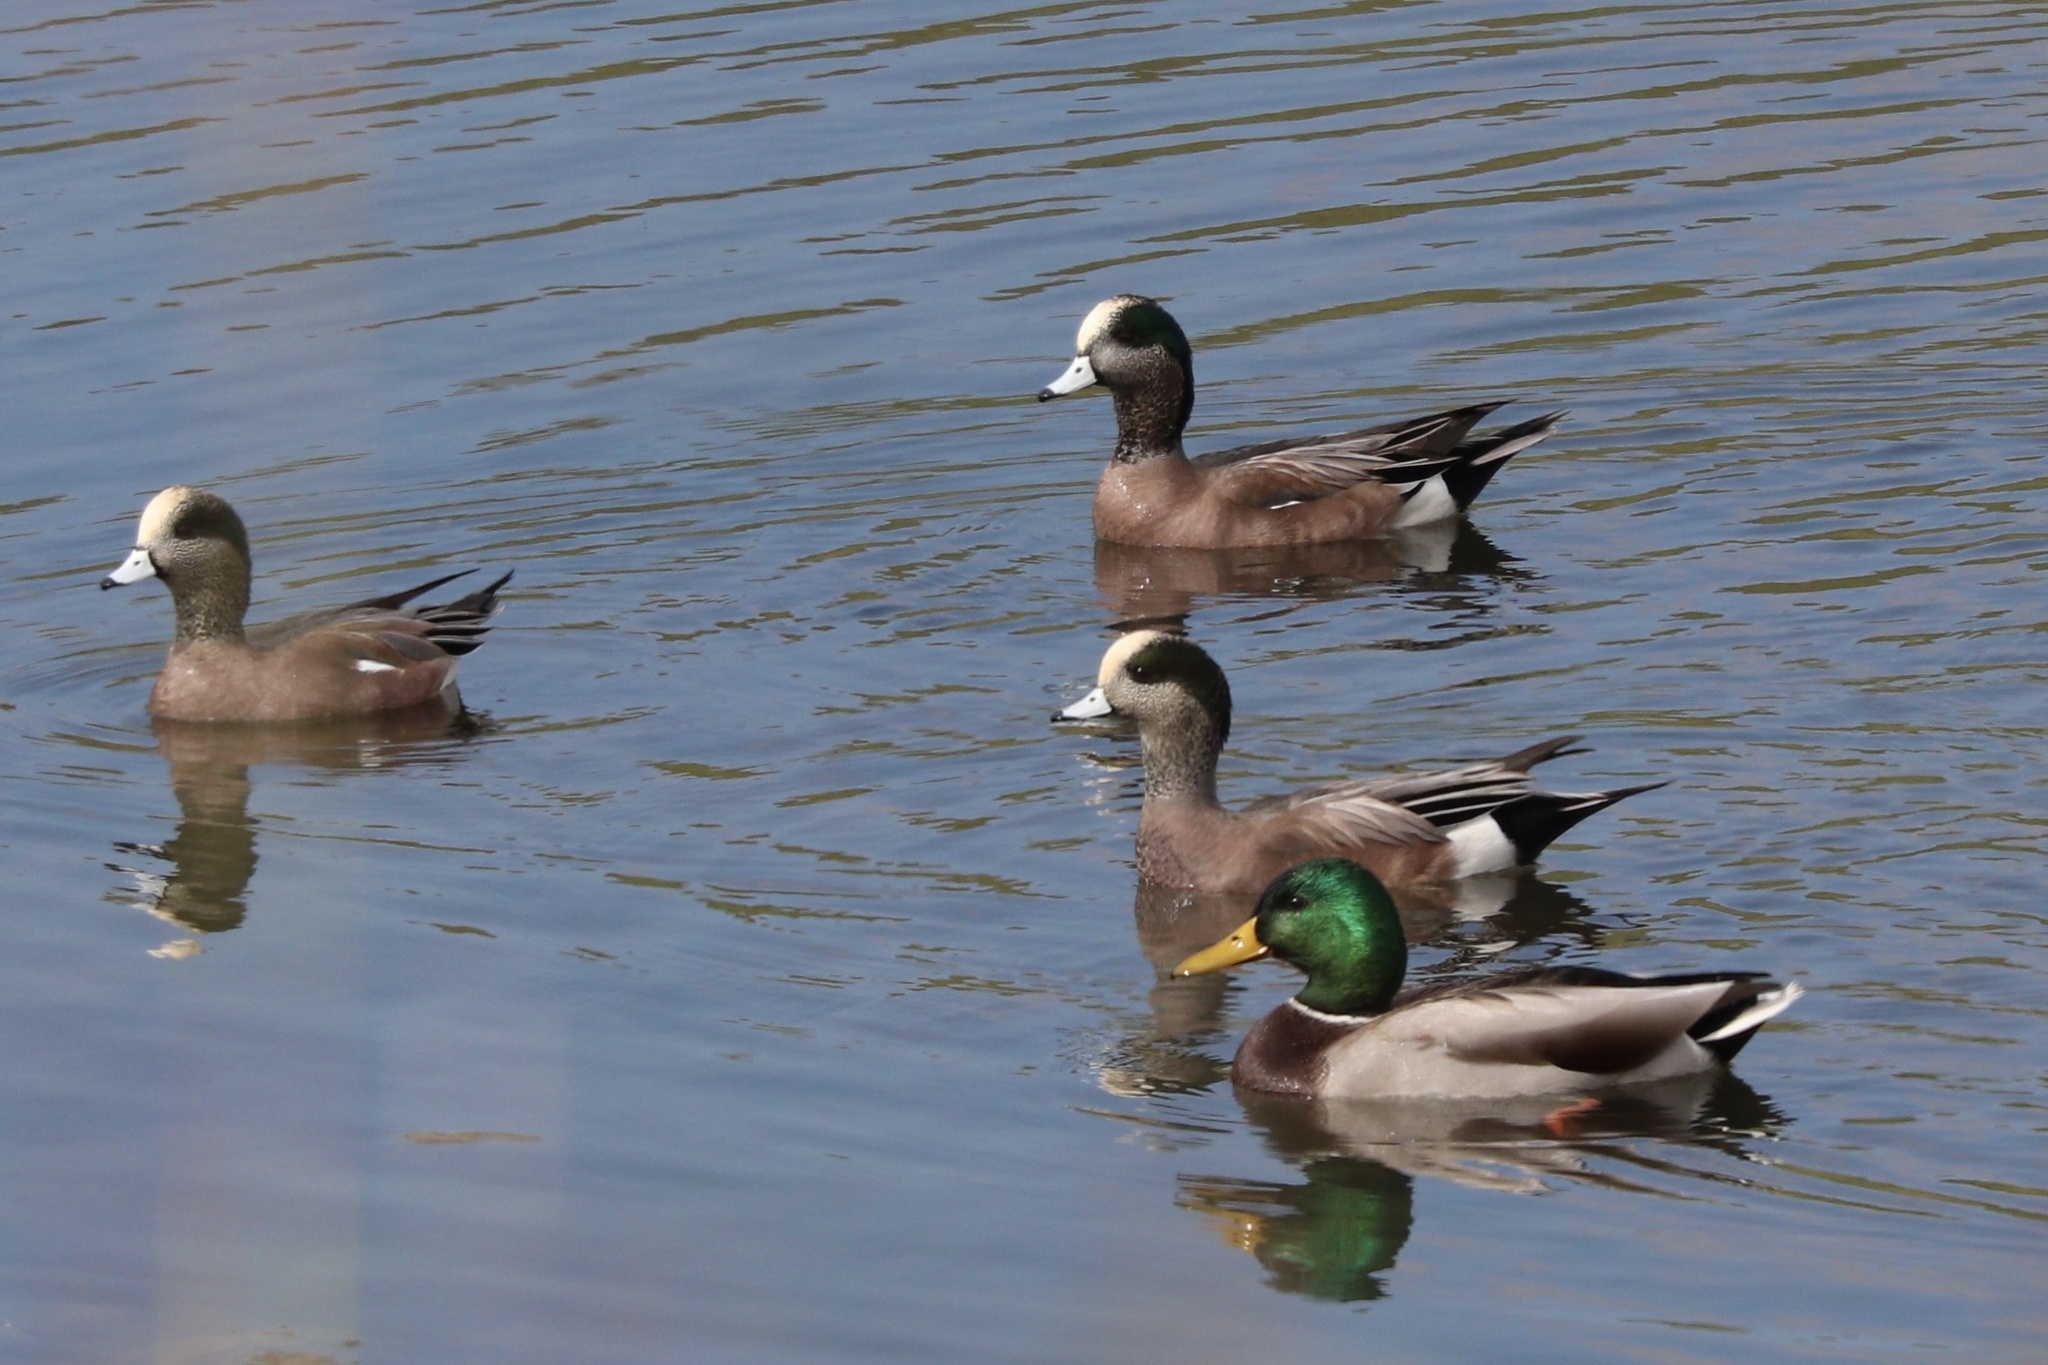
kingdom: Animalia
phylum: Chordata
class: Aves
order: Anseriformes
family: Anatidae
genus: Mareca
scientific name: Mareca americana
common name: American wigeon
